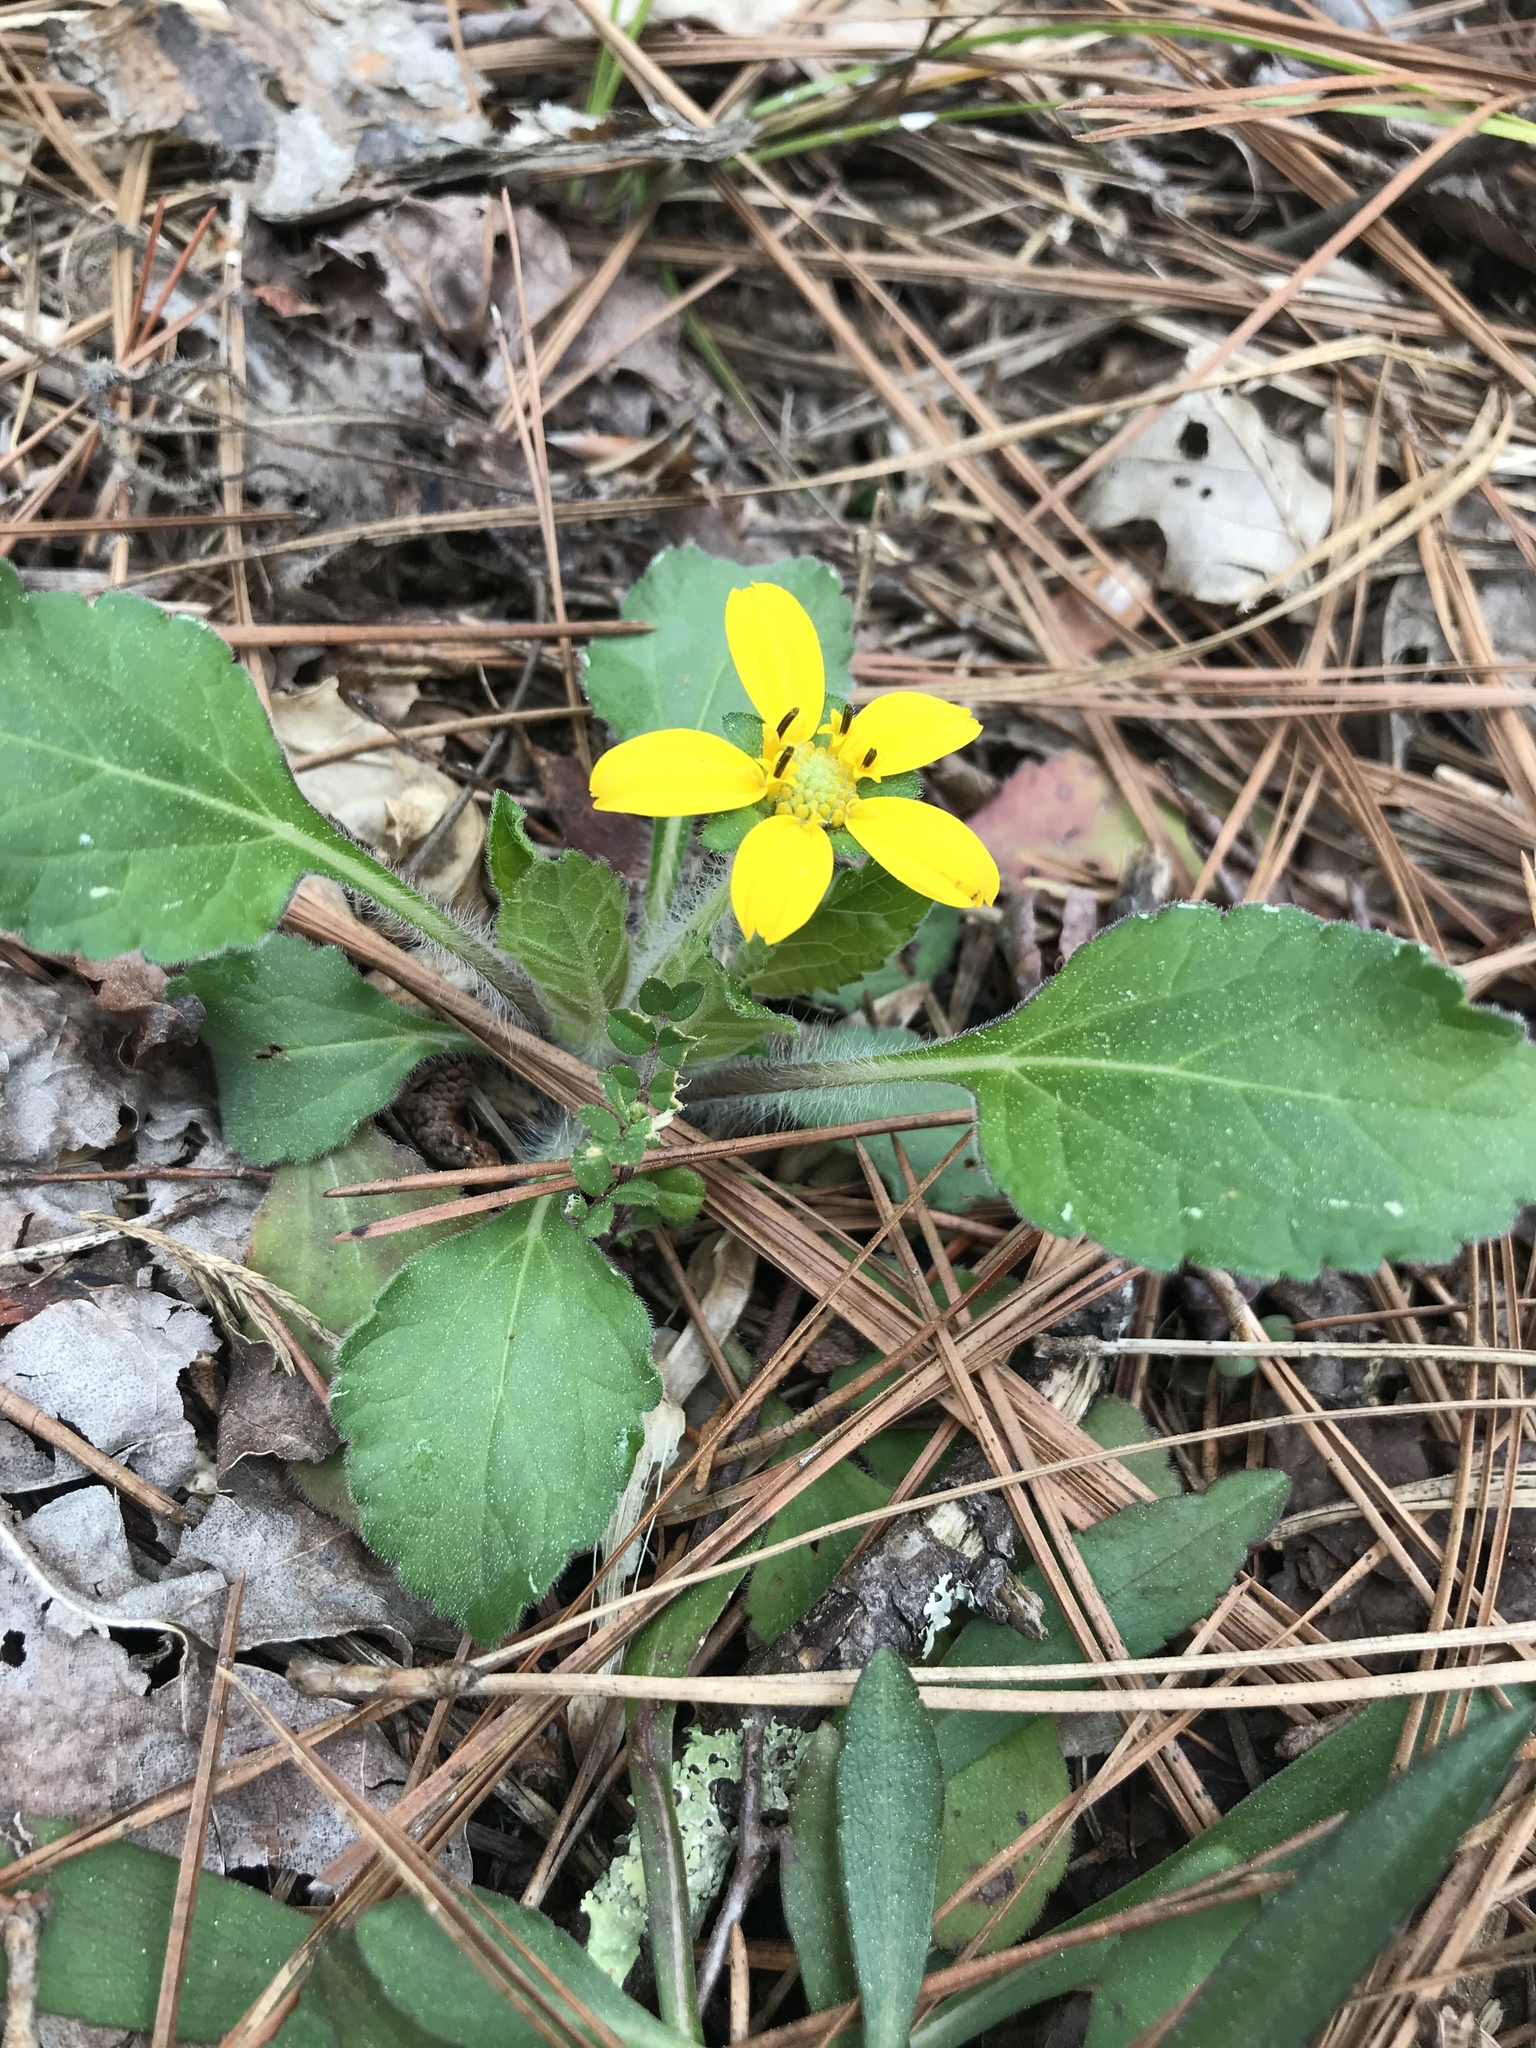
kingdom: Plantae
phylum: Tracheophyta
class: Magnoliopsida
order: Asterales
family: Asteraceae
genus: Chrysogonum
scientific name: Chrysogonum virginianum
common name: Golden-knee
